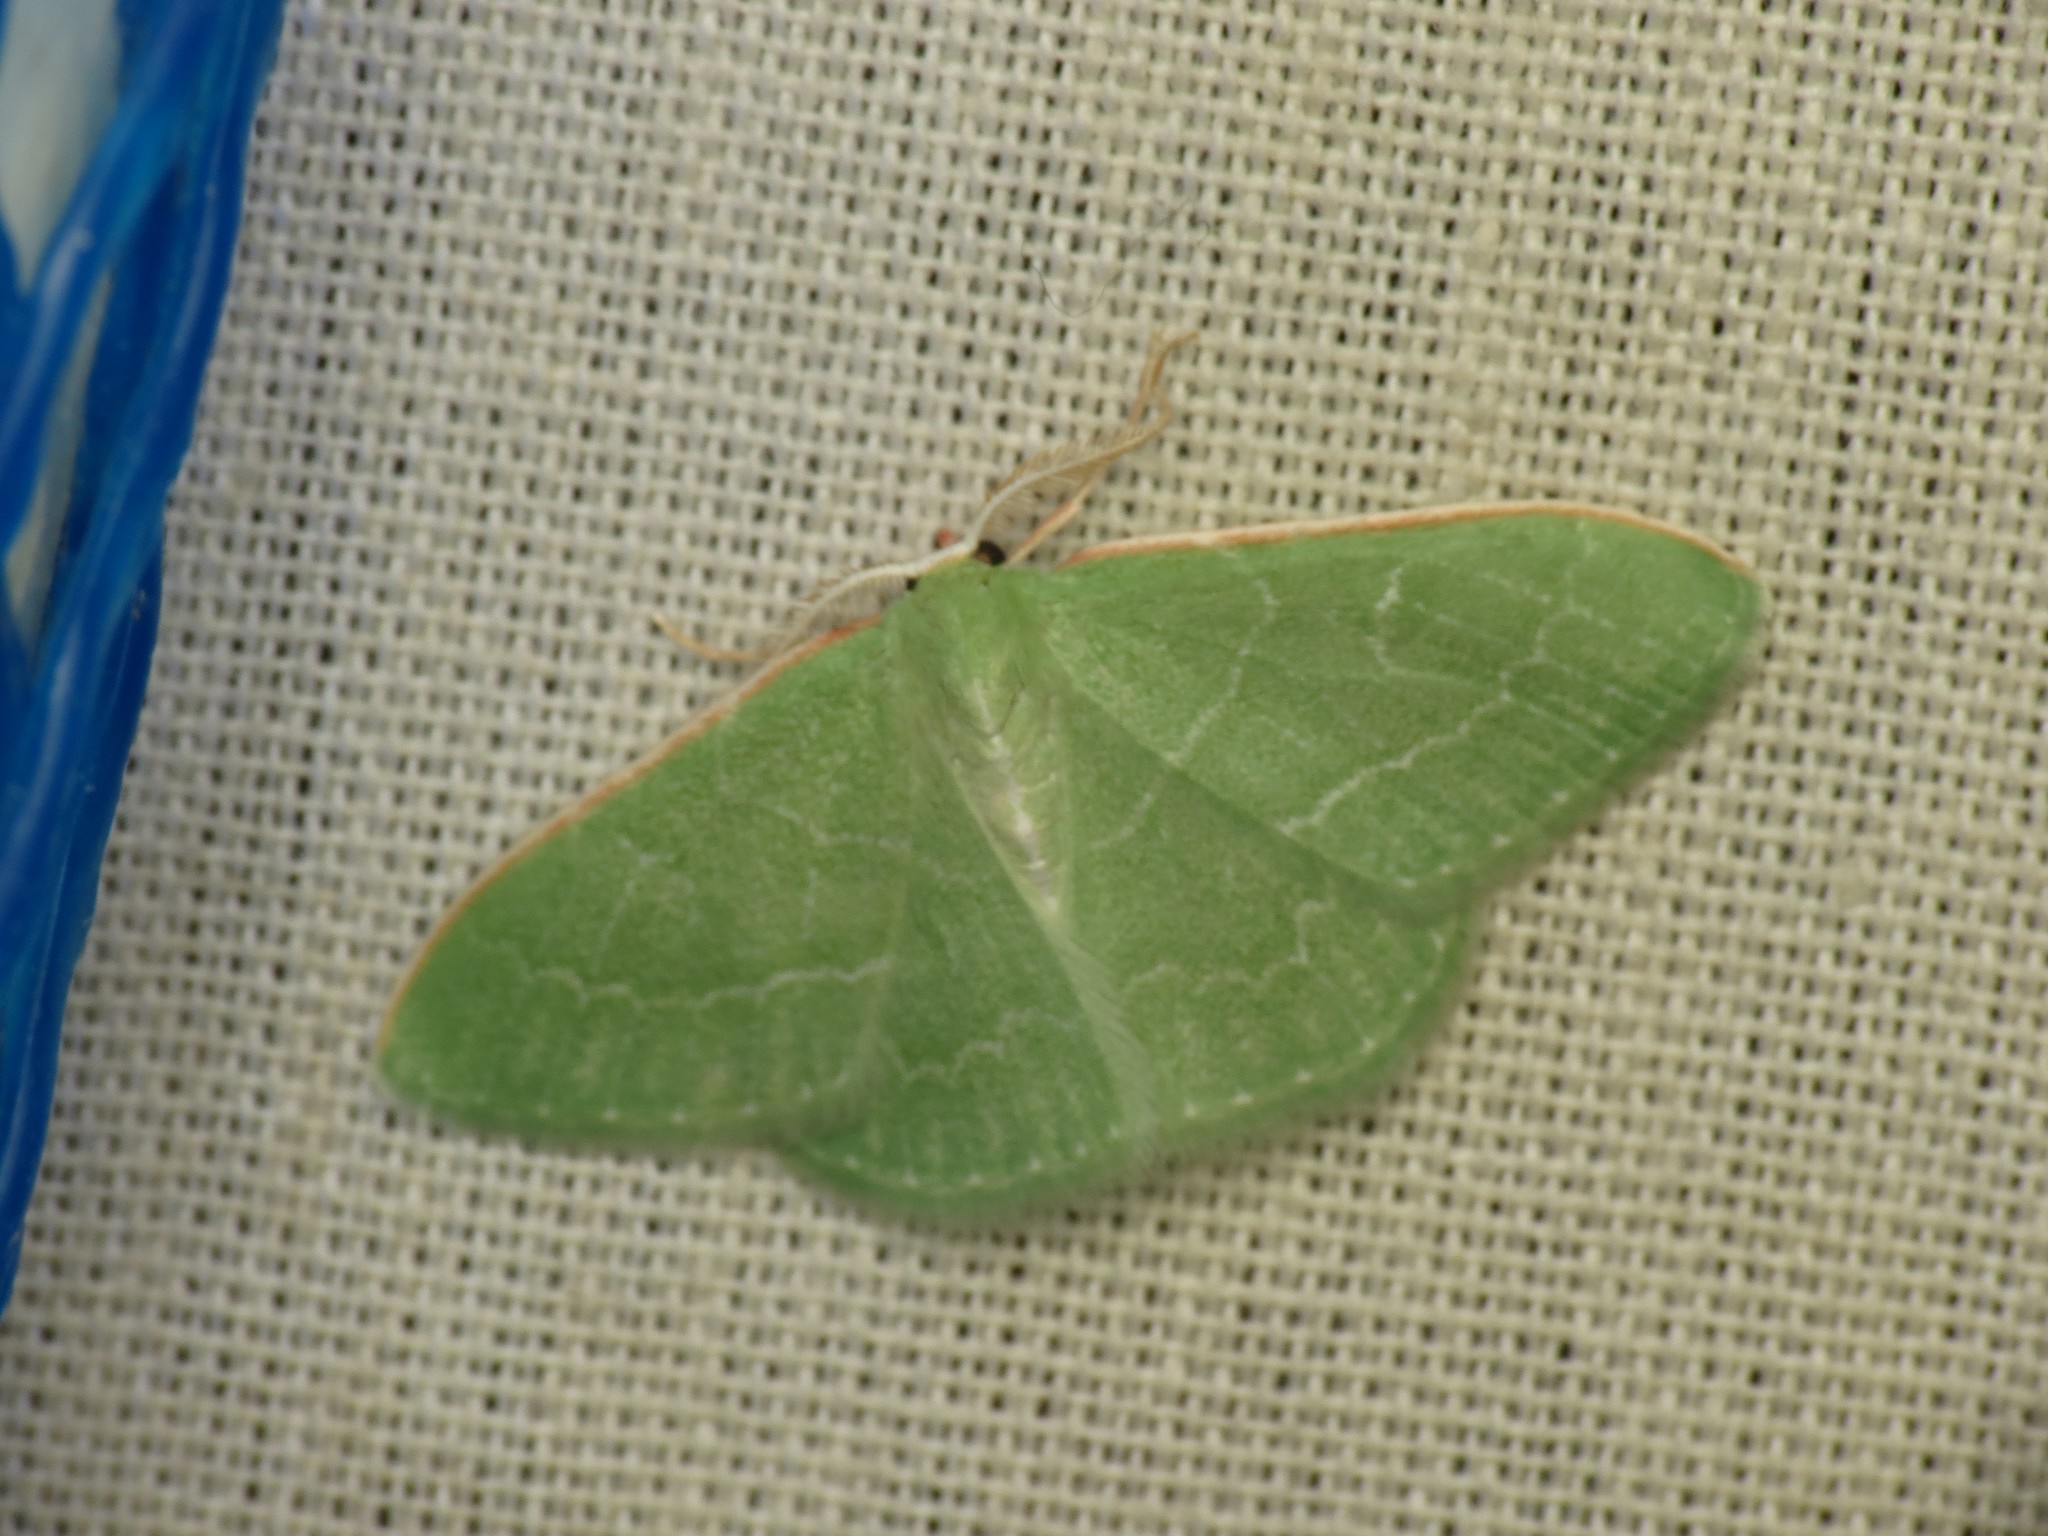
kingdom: Animalia
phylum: Arthropoda
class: Insecta
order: Lepidoptera
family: Geometridae
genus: Synchlora
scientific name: Synchlora aerata
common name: Wavy-lined emerald
